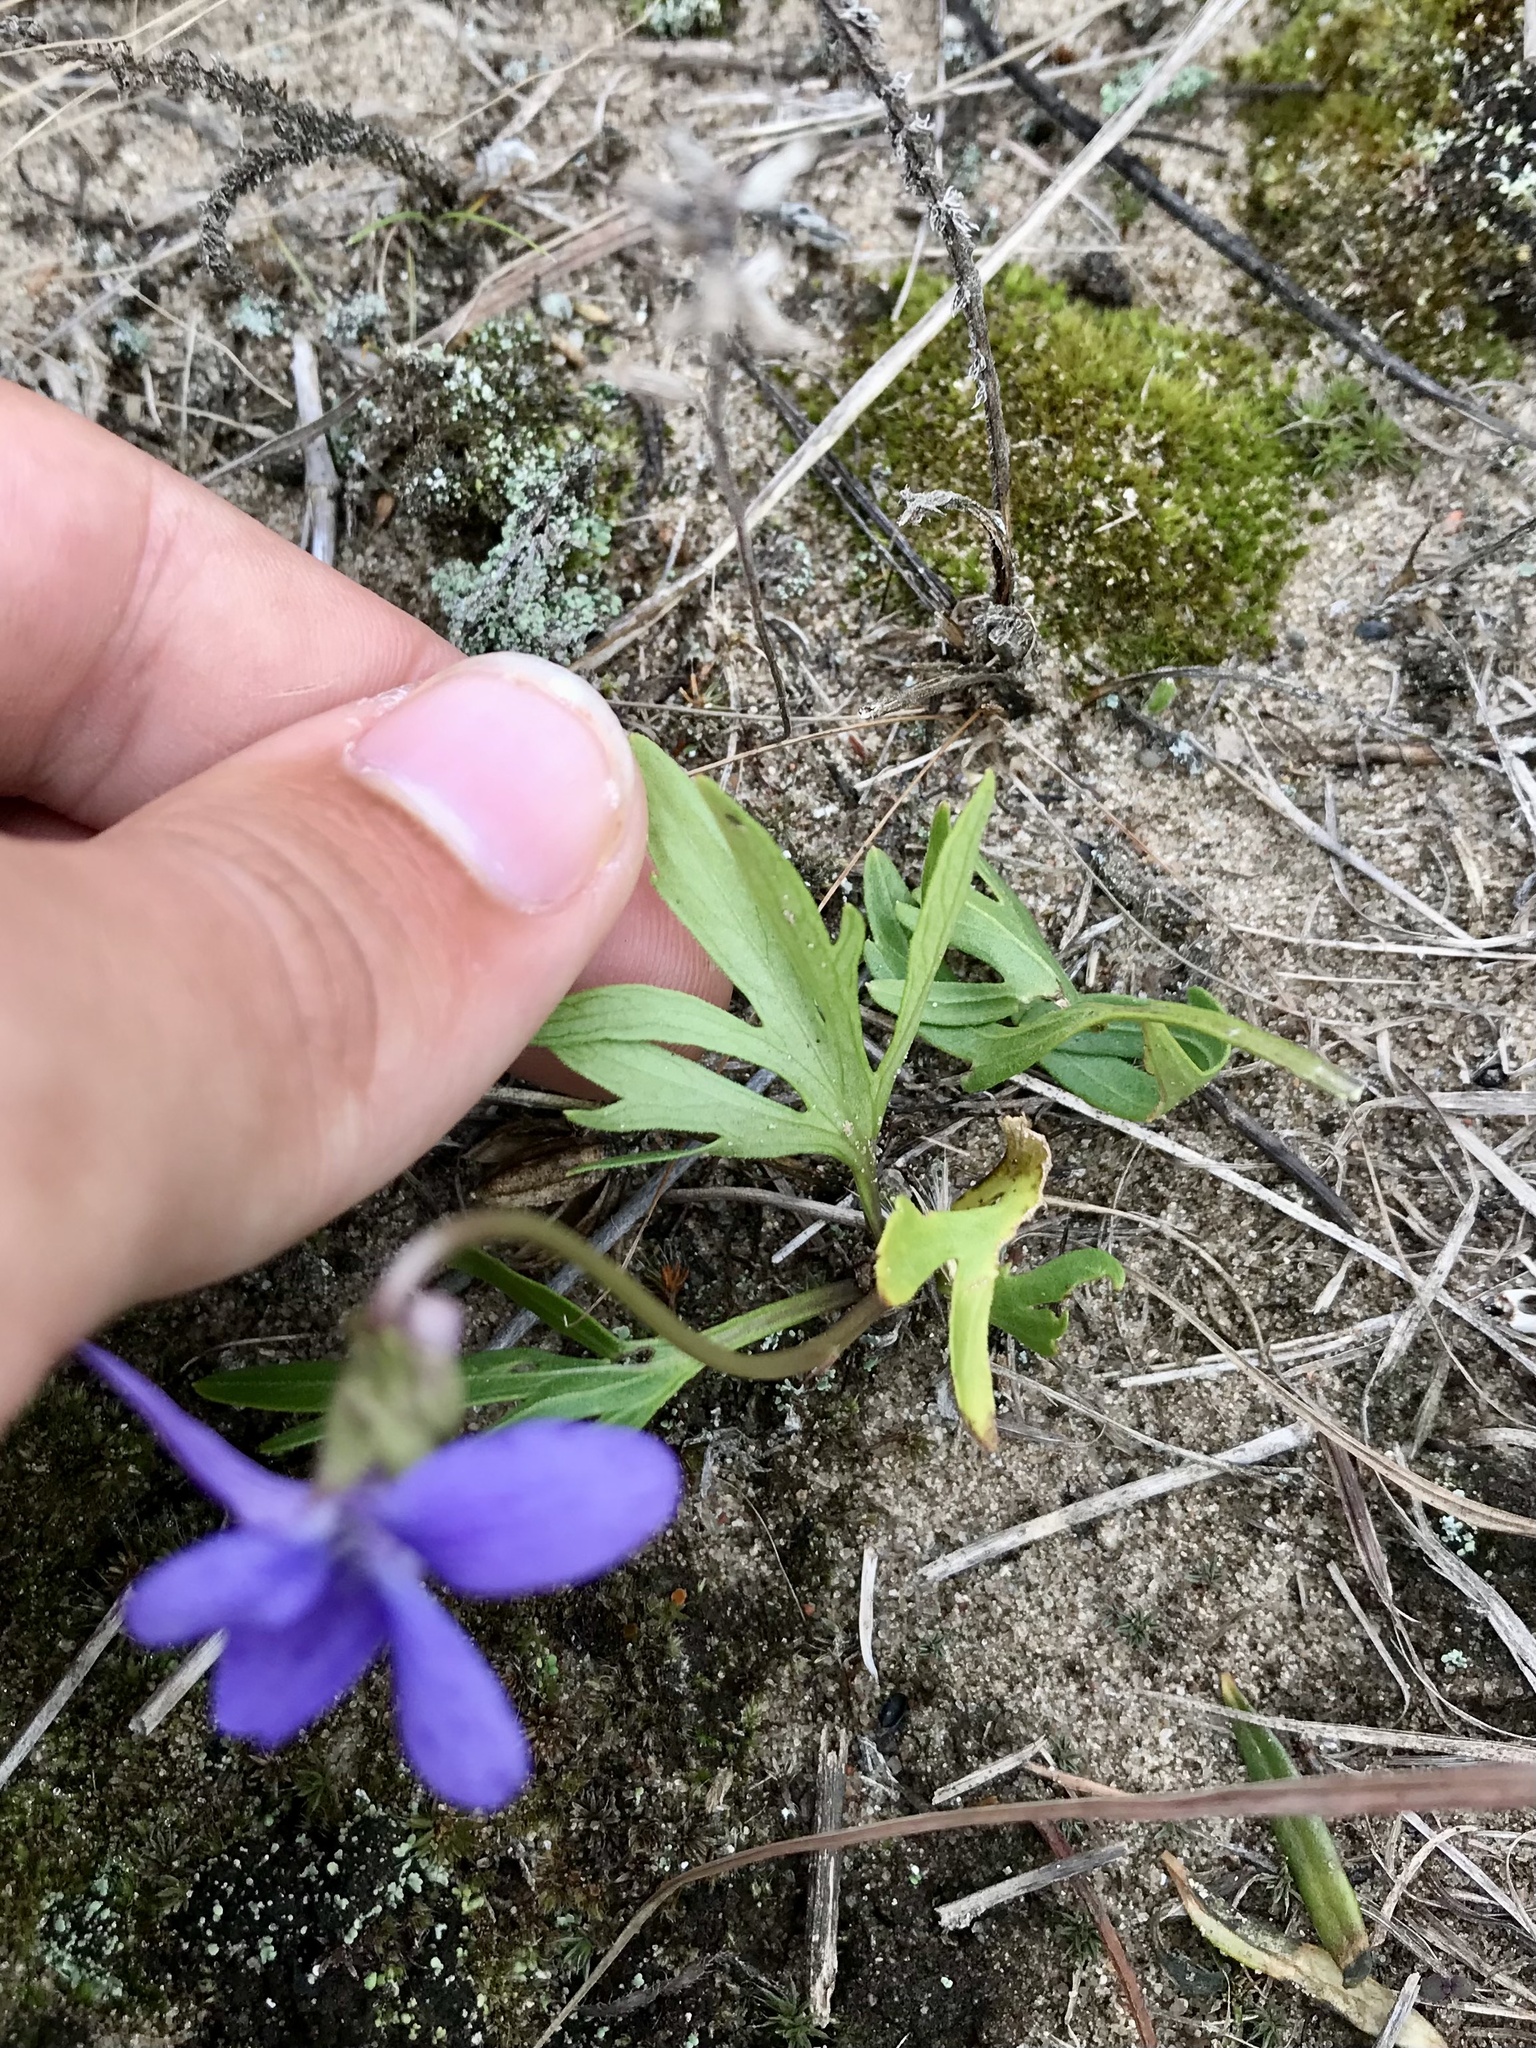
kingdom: Plantae
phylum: Tracheophyta
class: Magnoliopsida
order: Malpighiales
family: Violaceae
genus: Viola
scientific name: Viola pedatifida
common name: Prairie violet
